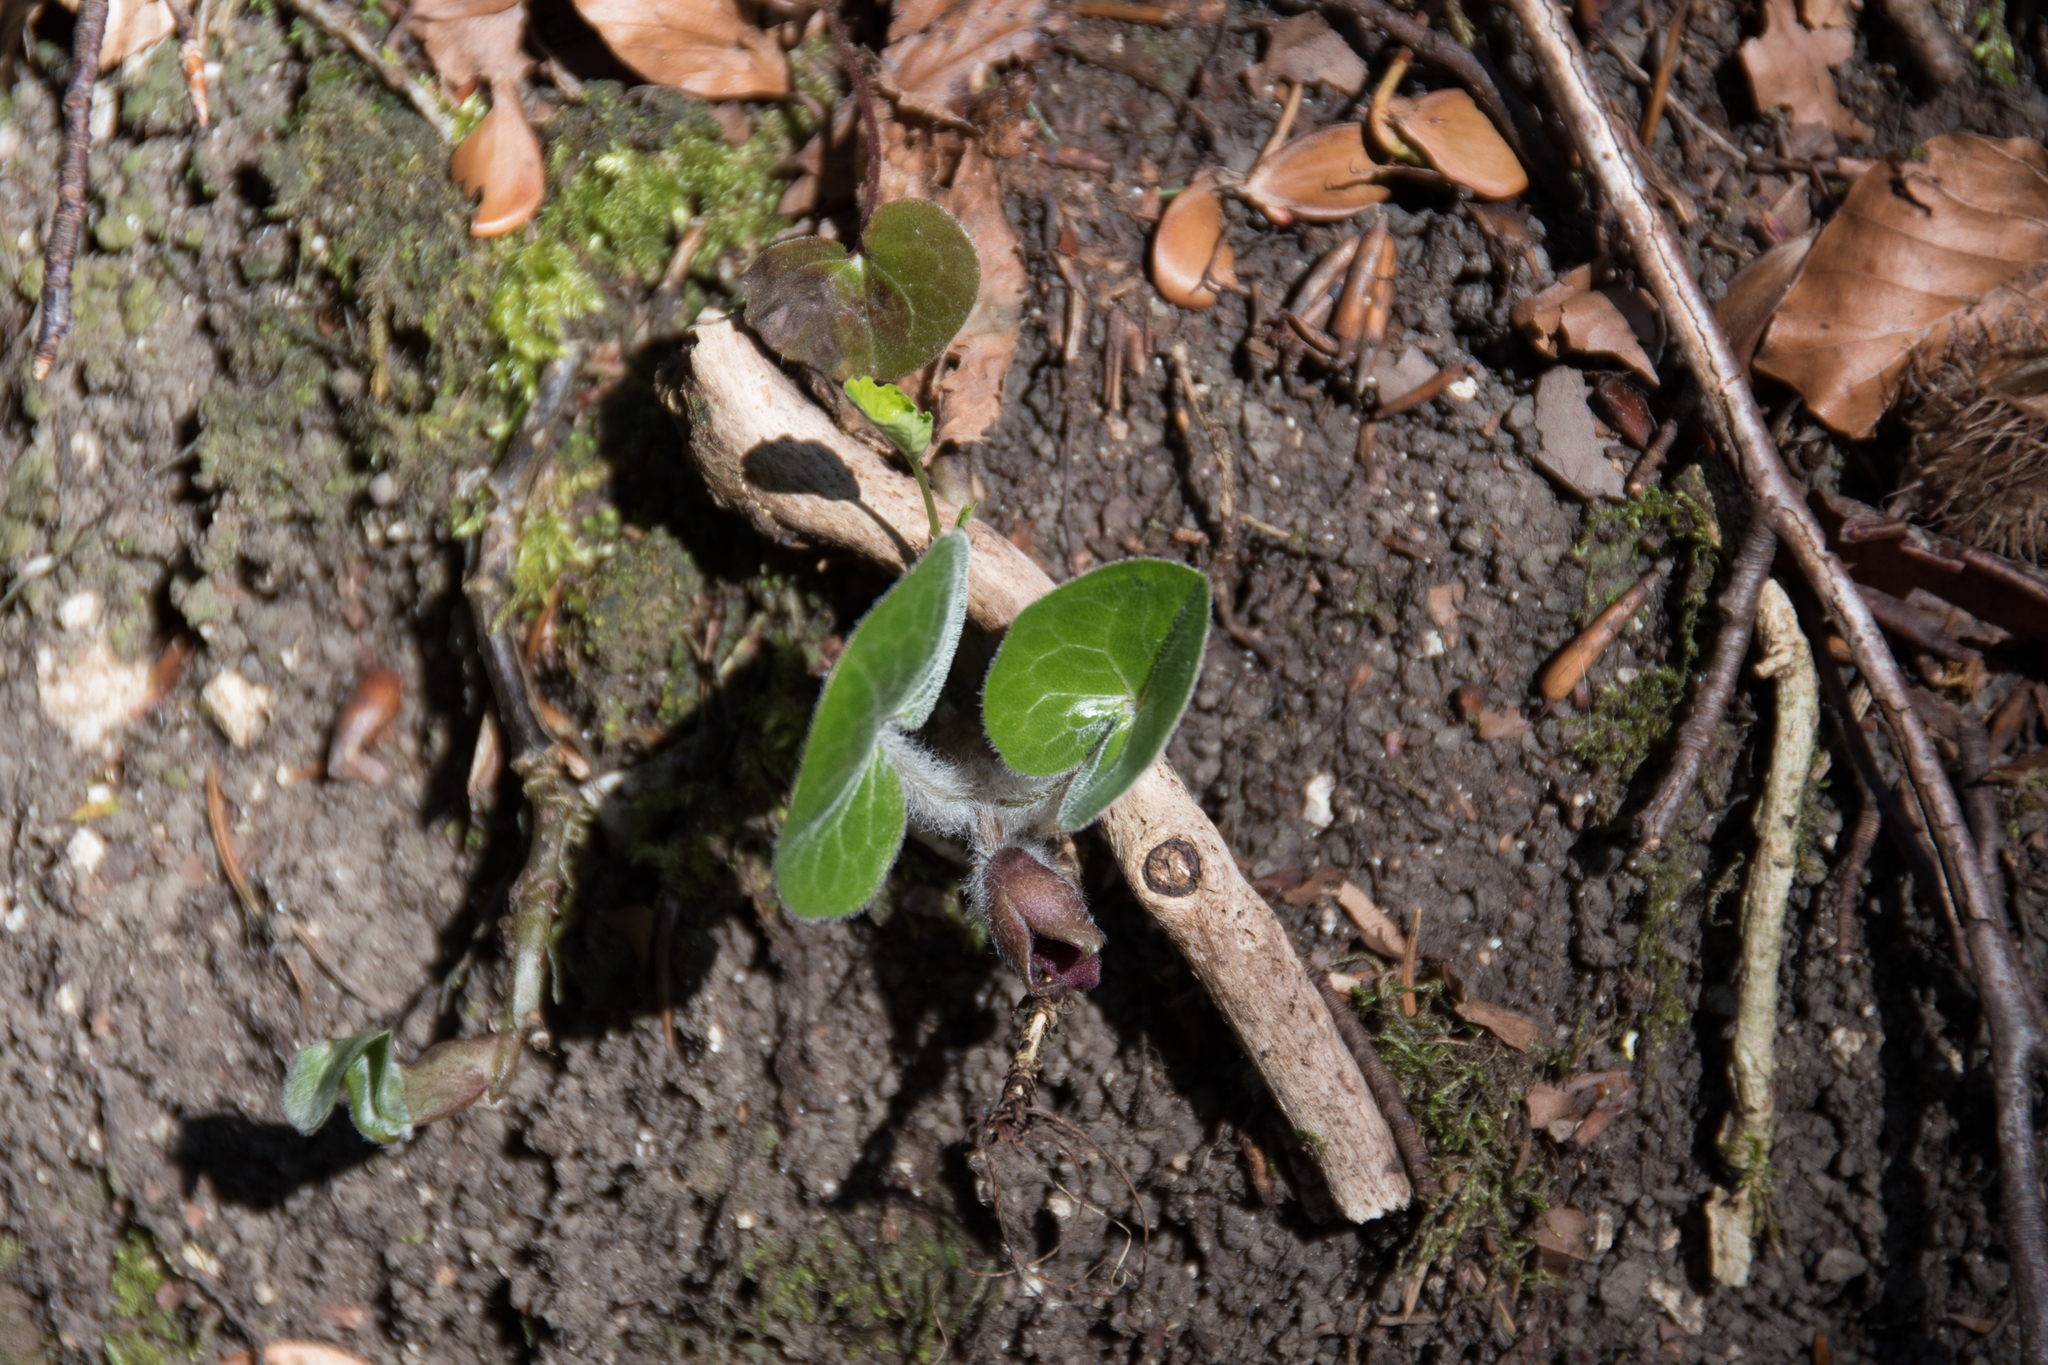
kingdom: Plantae
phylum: Tracheophyta
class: Magnoliopsida
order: Piperales
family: Aristolochiaceae
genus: Asarum
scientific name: Asarum europaeum
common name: Asarabacca
